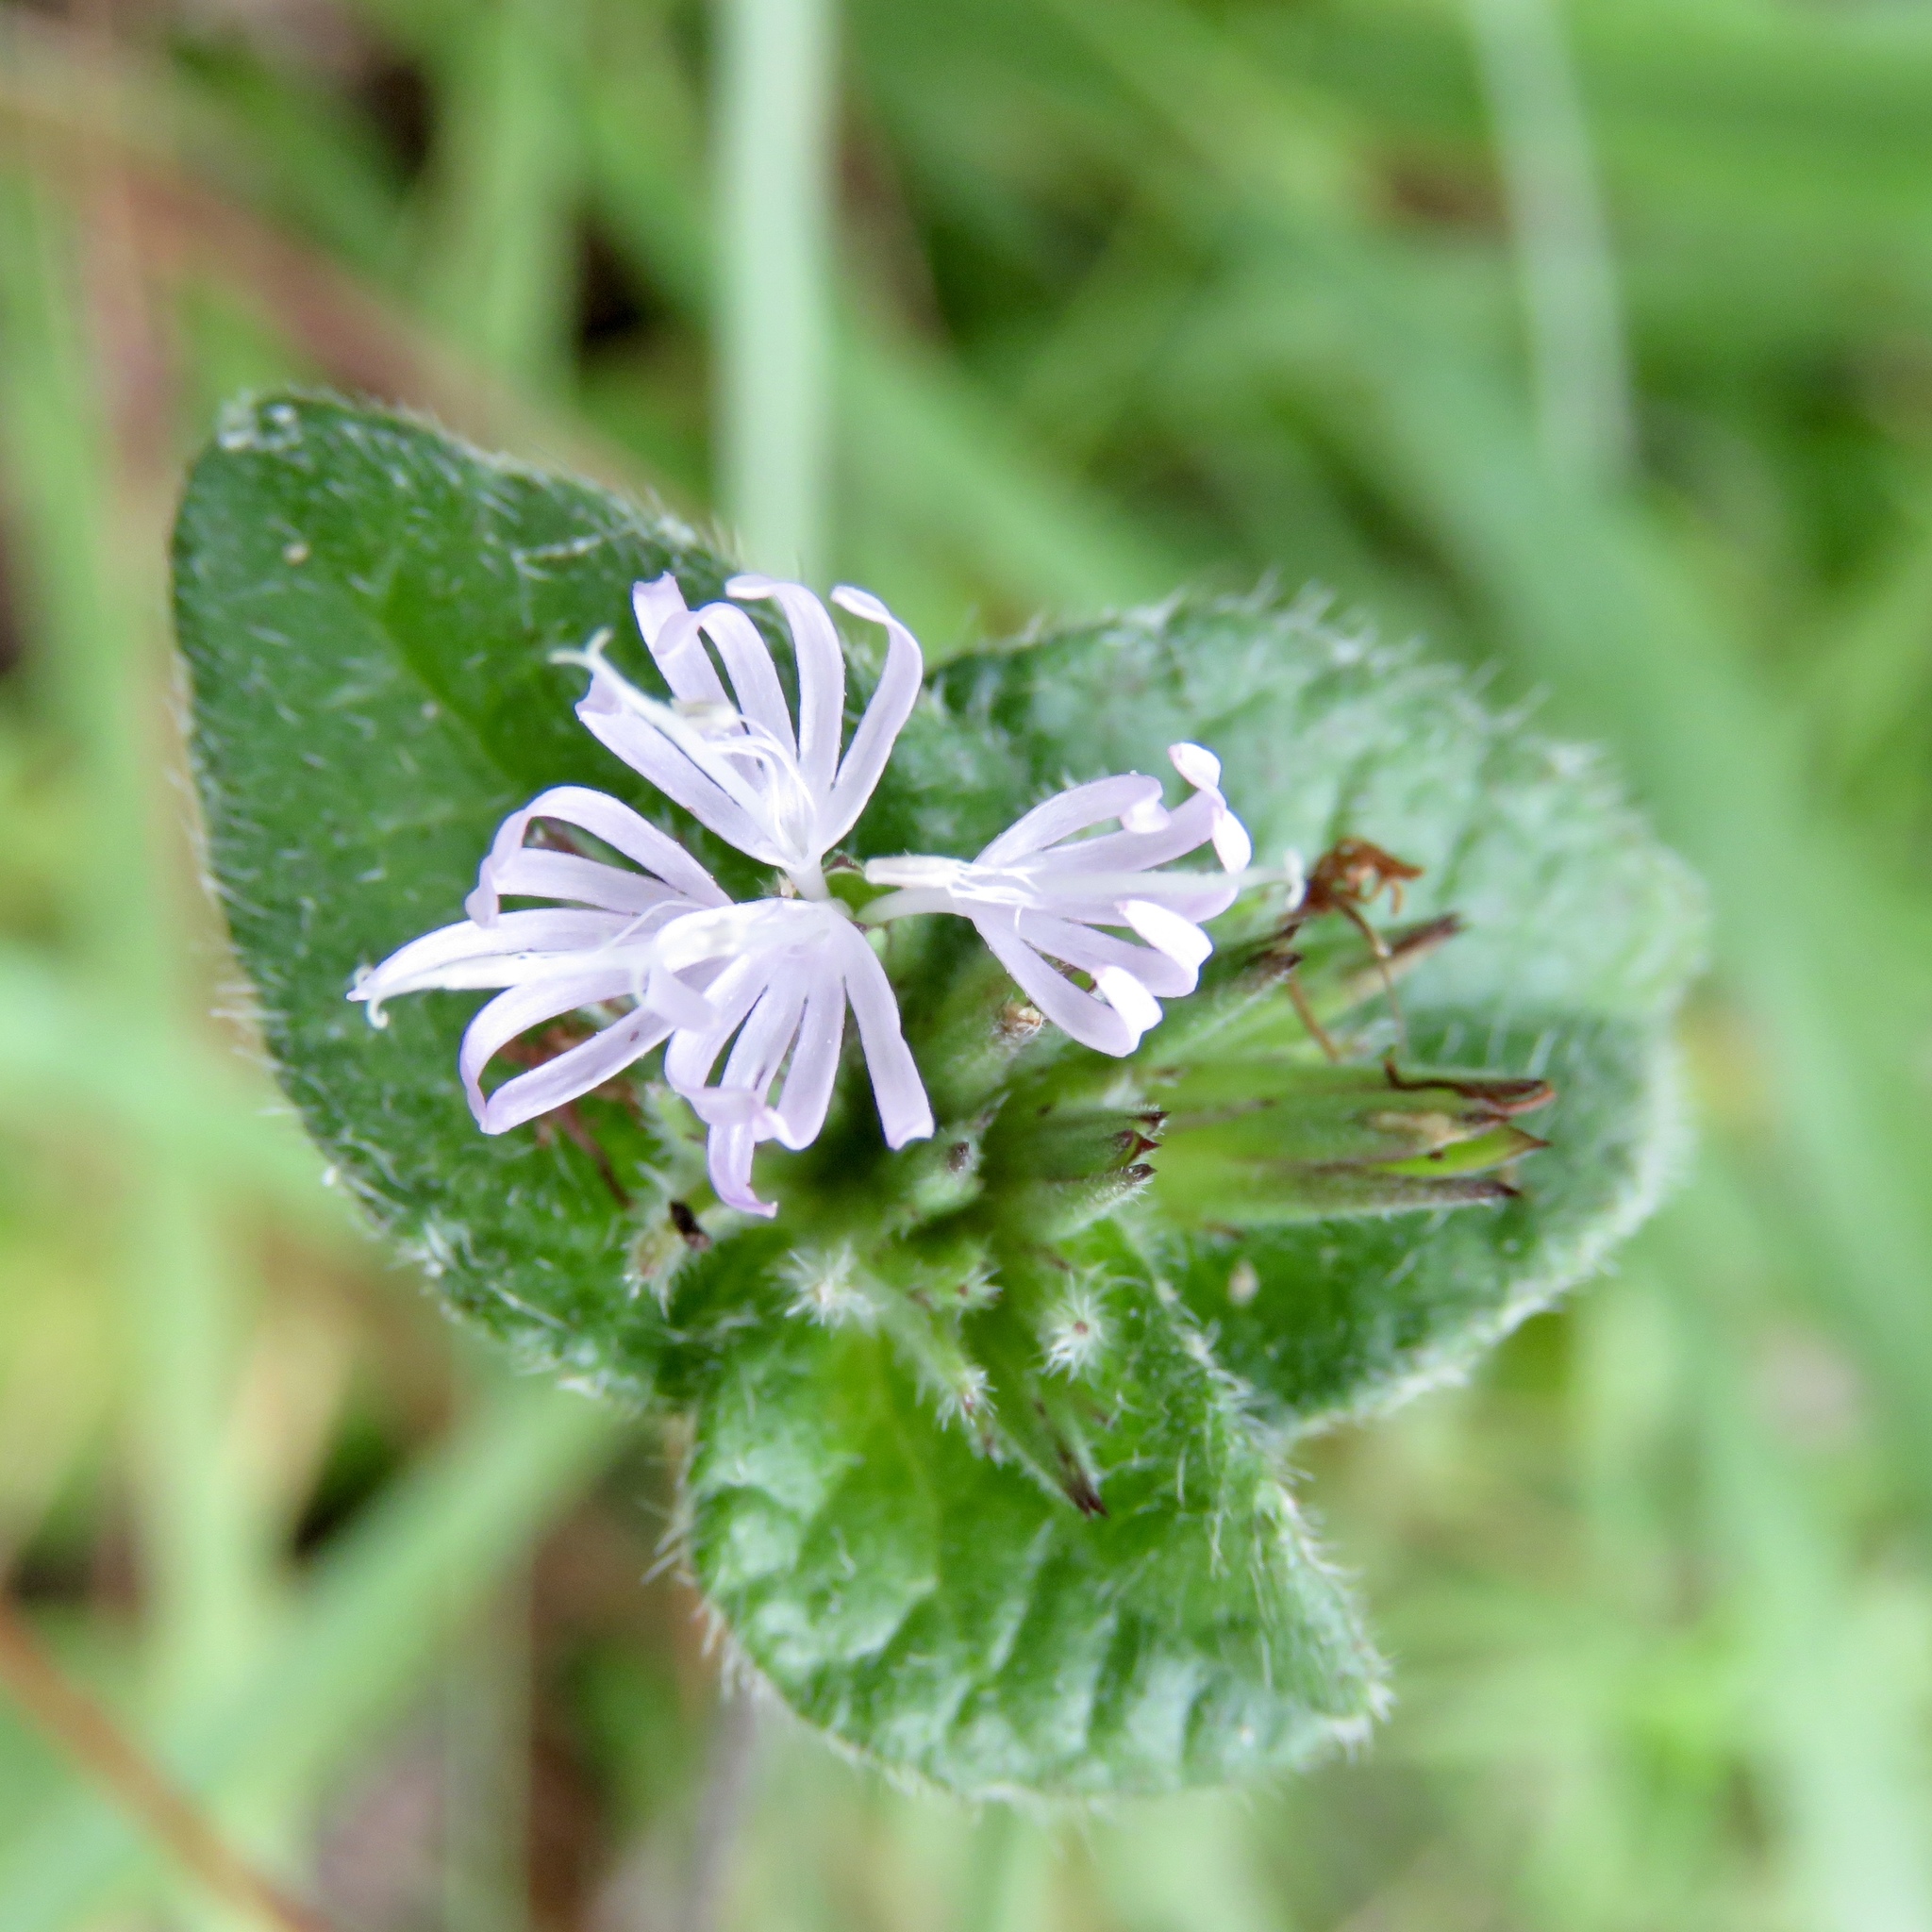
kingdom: Plantae
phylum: Tracheophyta
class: Magnoliopsida
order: Asterales
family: Asteraceae
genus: Elephantopus
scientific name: Elephantopus tomentosus
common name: Tobacco-weed
